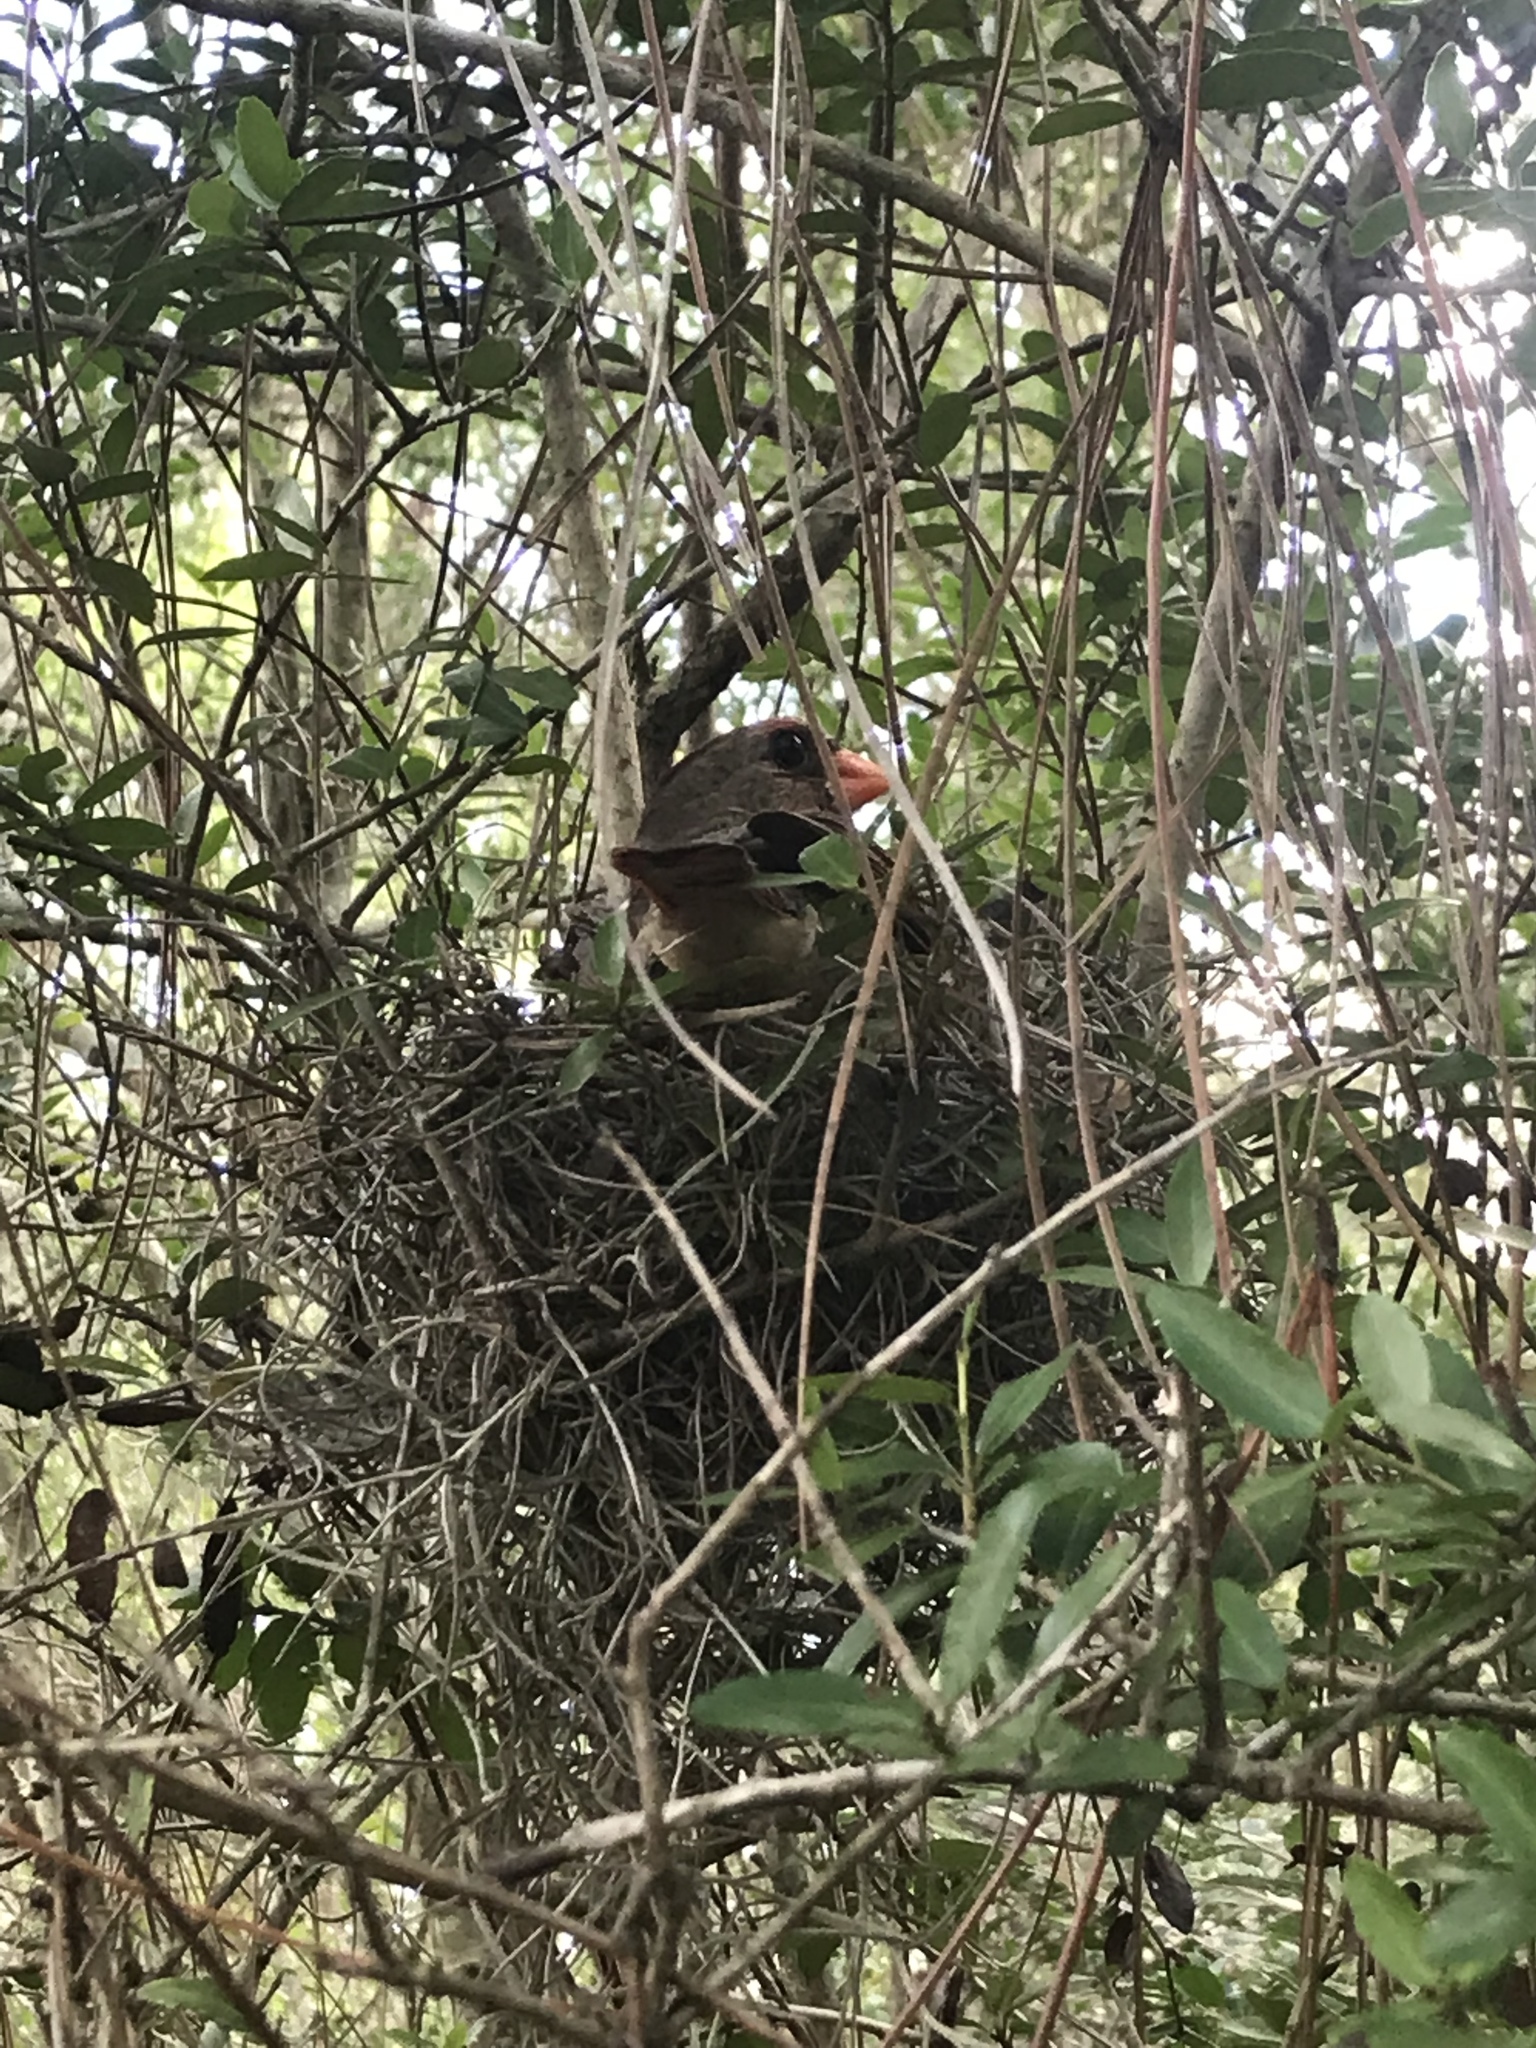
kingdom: Animalia
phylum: Chordata
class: Aves
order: Passeriformes
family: Cardinalidae
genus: Cardinalis
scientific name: Cardinalis cardinalis
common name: Northern cardinal
